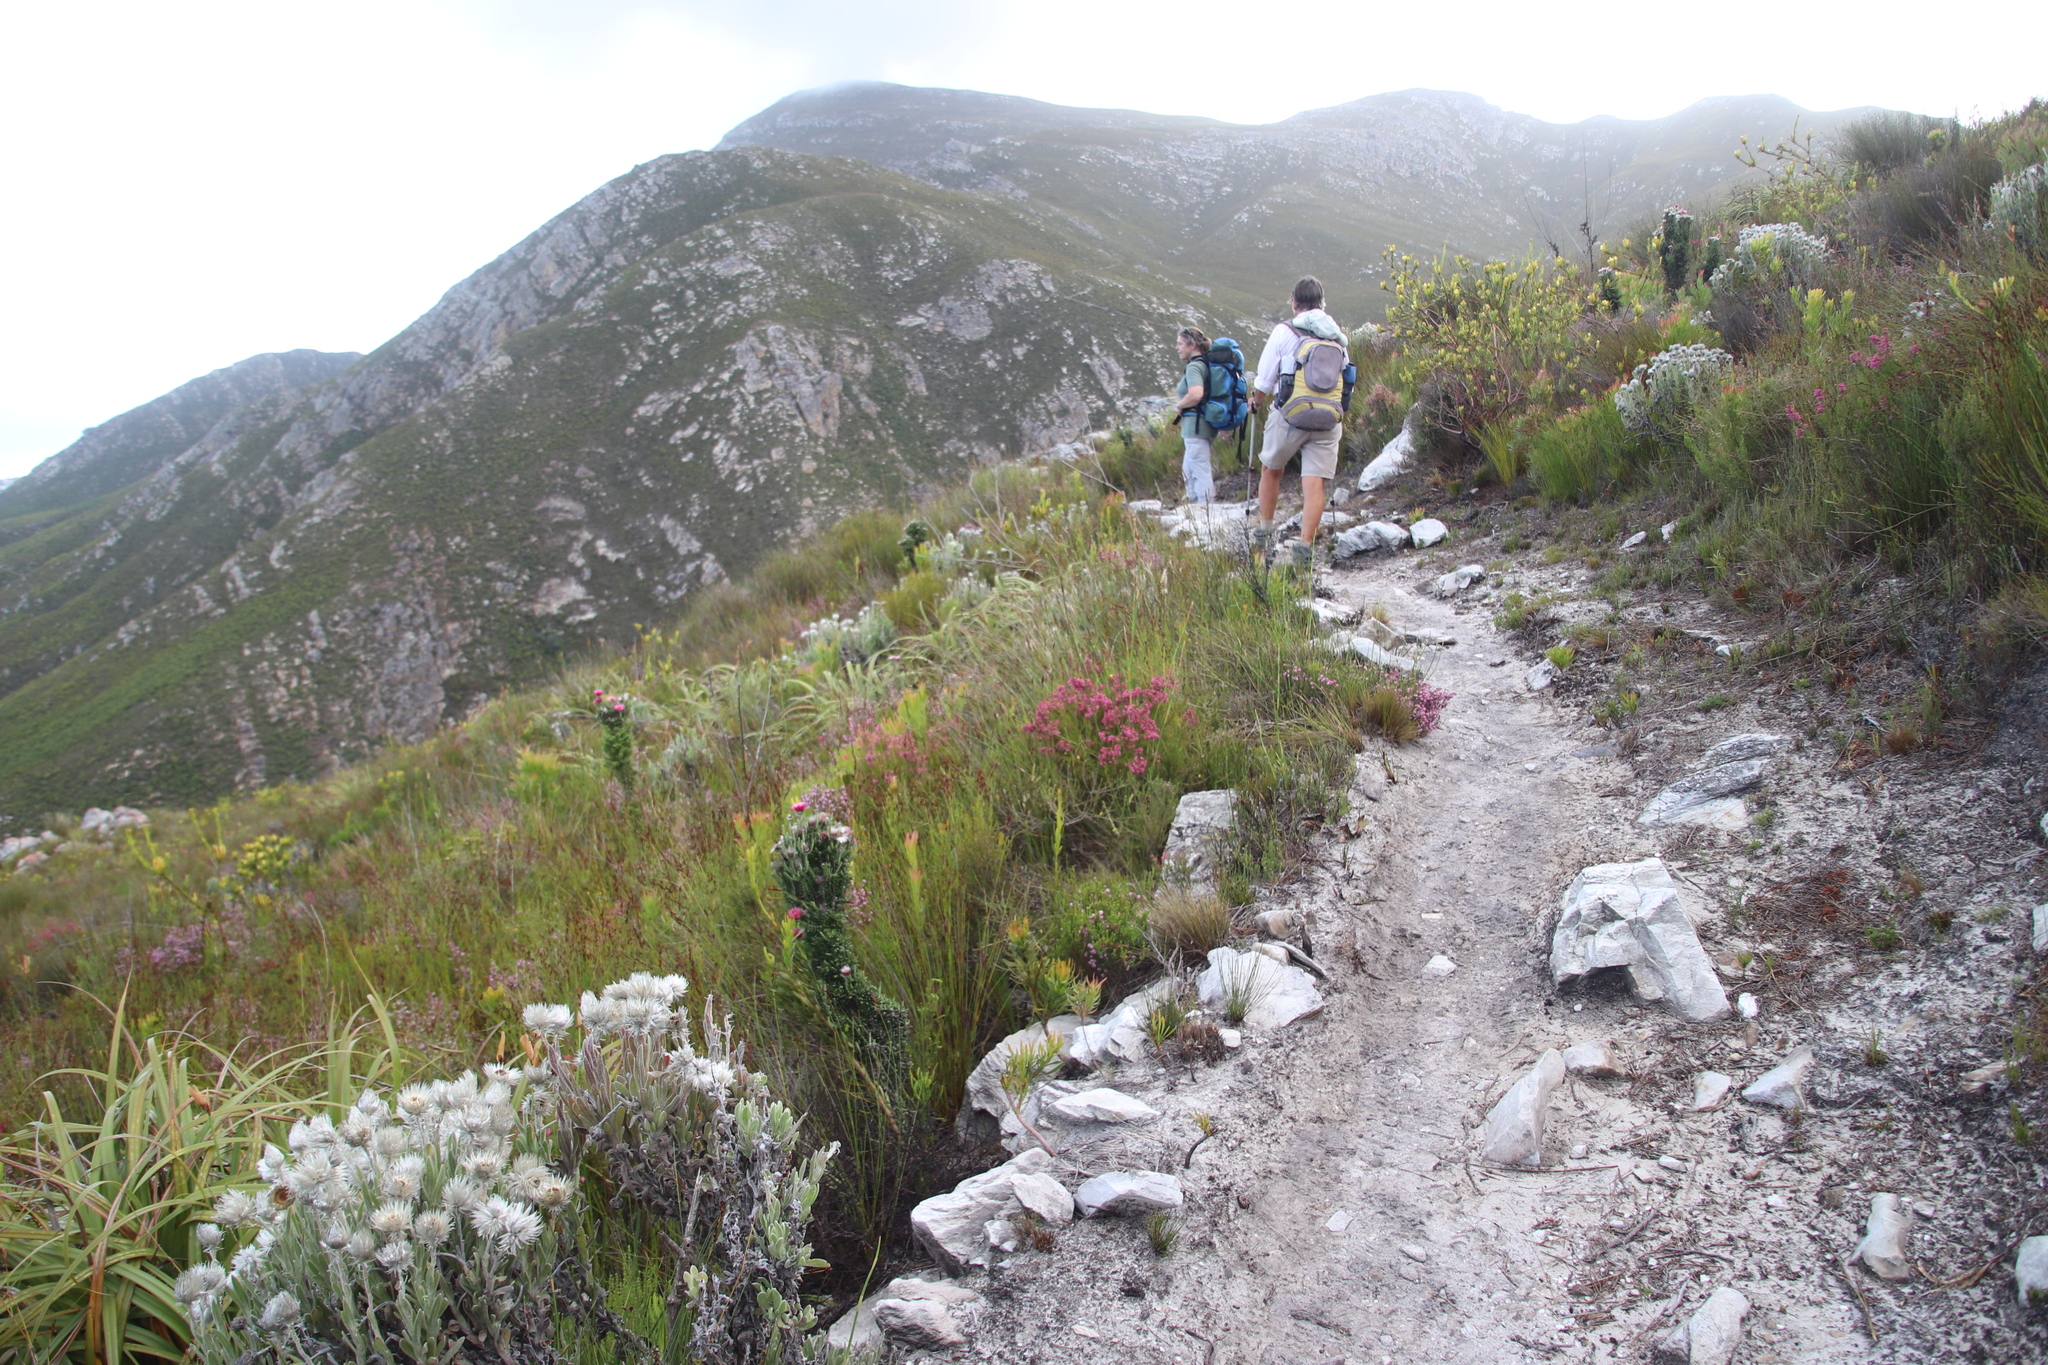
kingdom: Plantae
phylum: Tracheophyta
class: Magnoliopsida
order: Ericales
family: Ericaceae
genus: Erica
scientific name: Erica tenella
